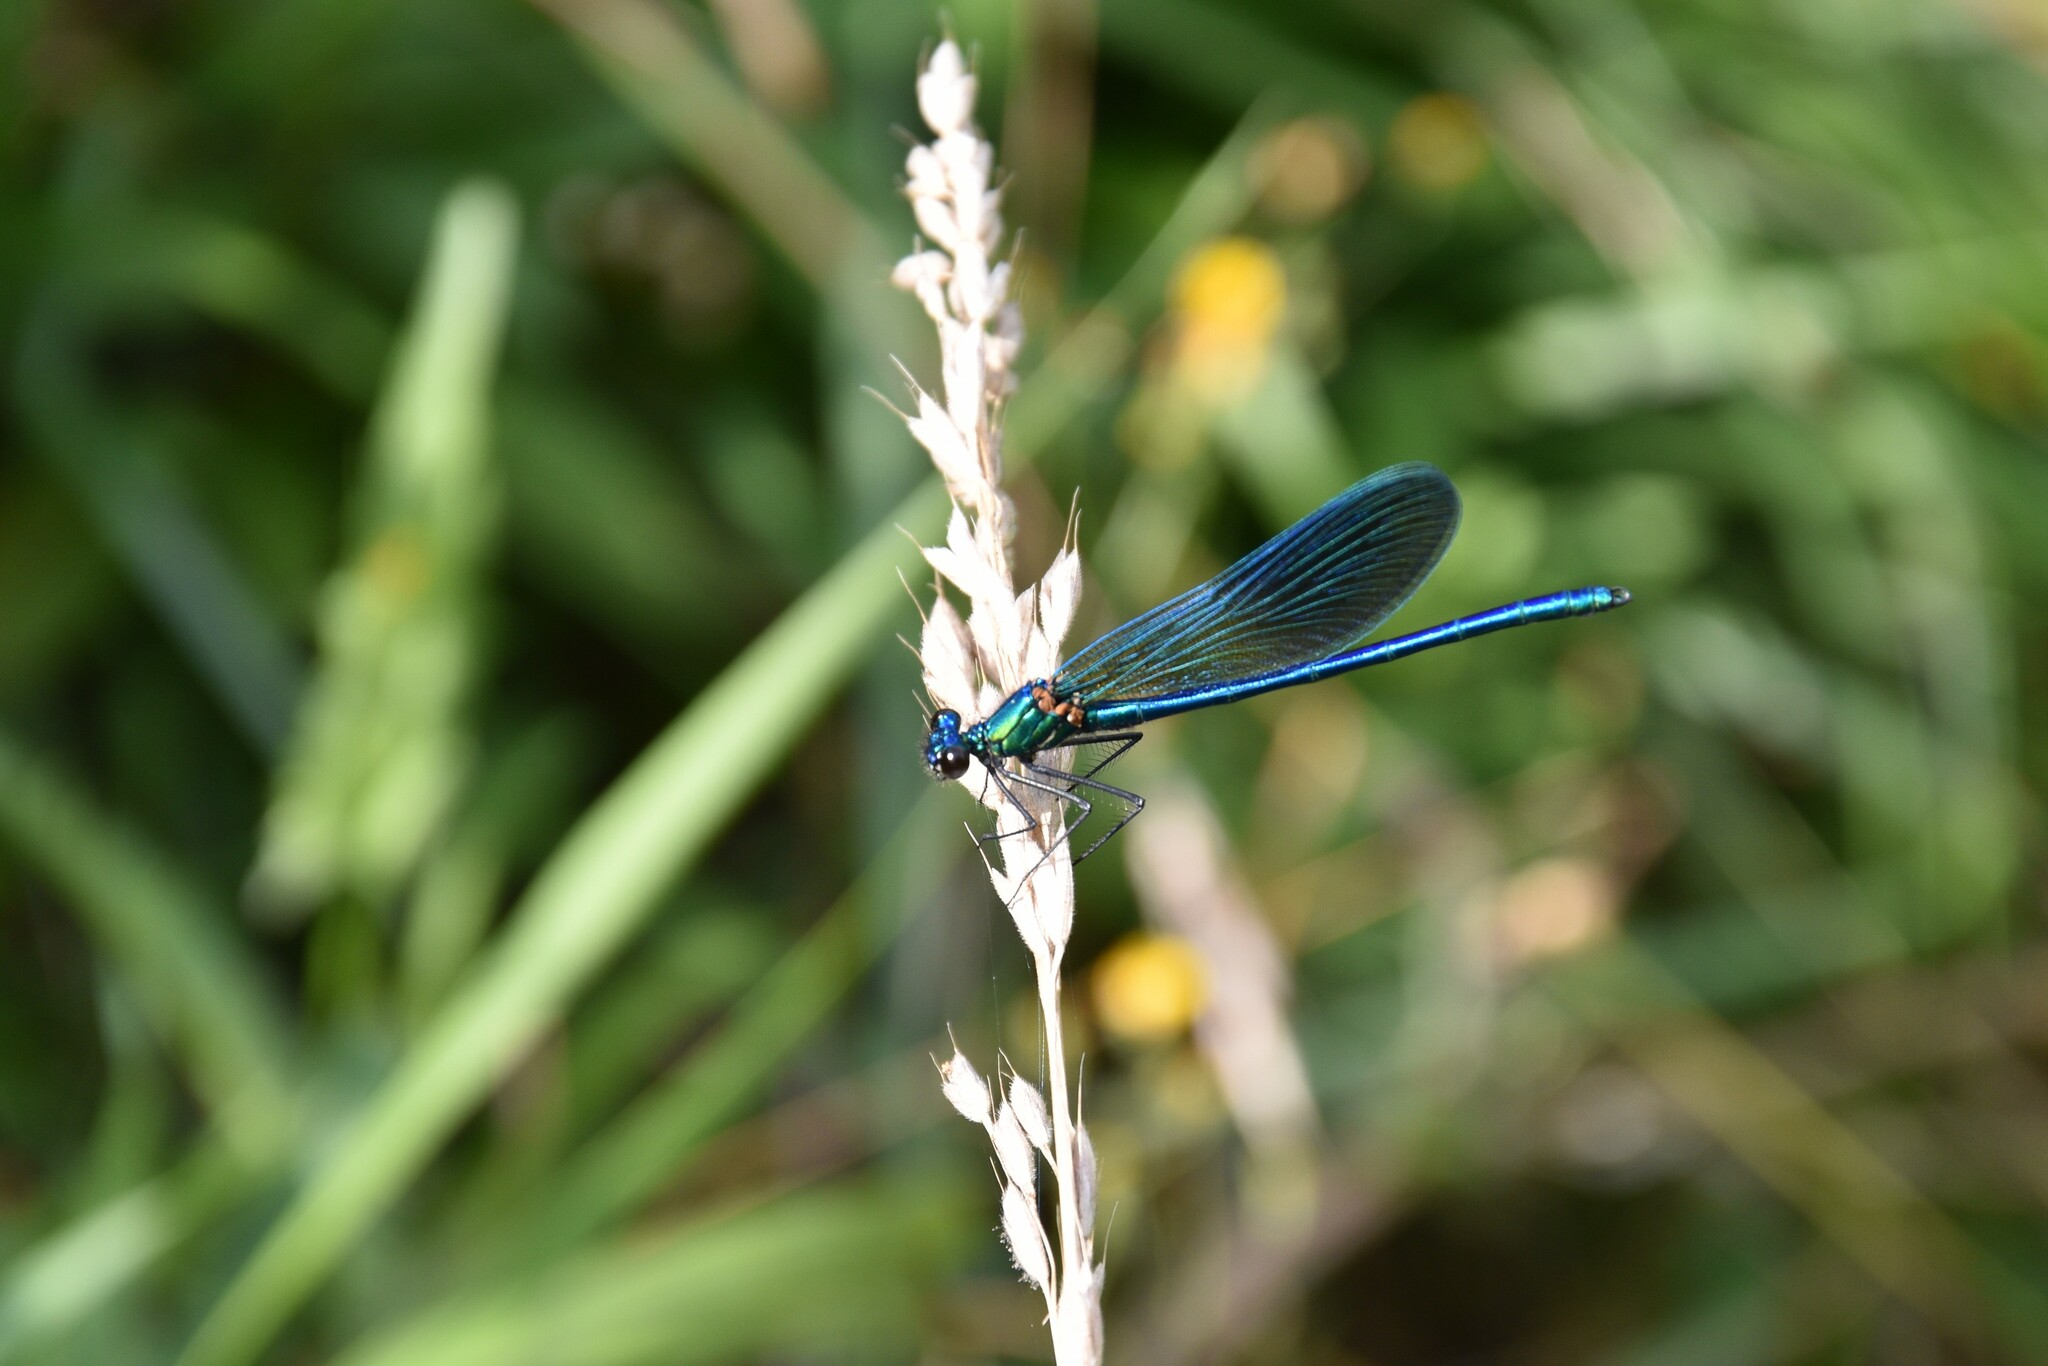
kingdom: Animalia
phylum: Arthropoda
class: Insecta
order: Odonata
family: Calopterygidae
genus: Calopteryx
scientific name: Calopteryx xanthostoma
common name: Western demoiselle
